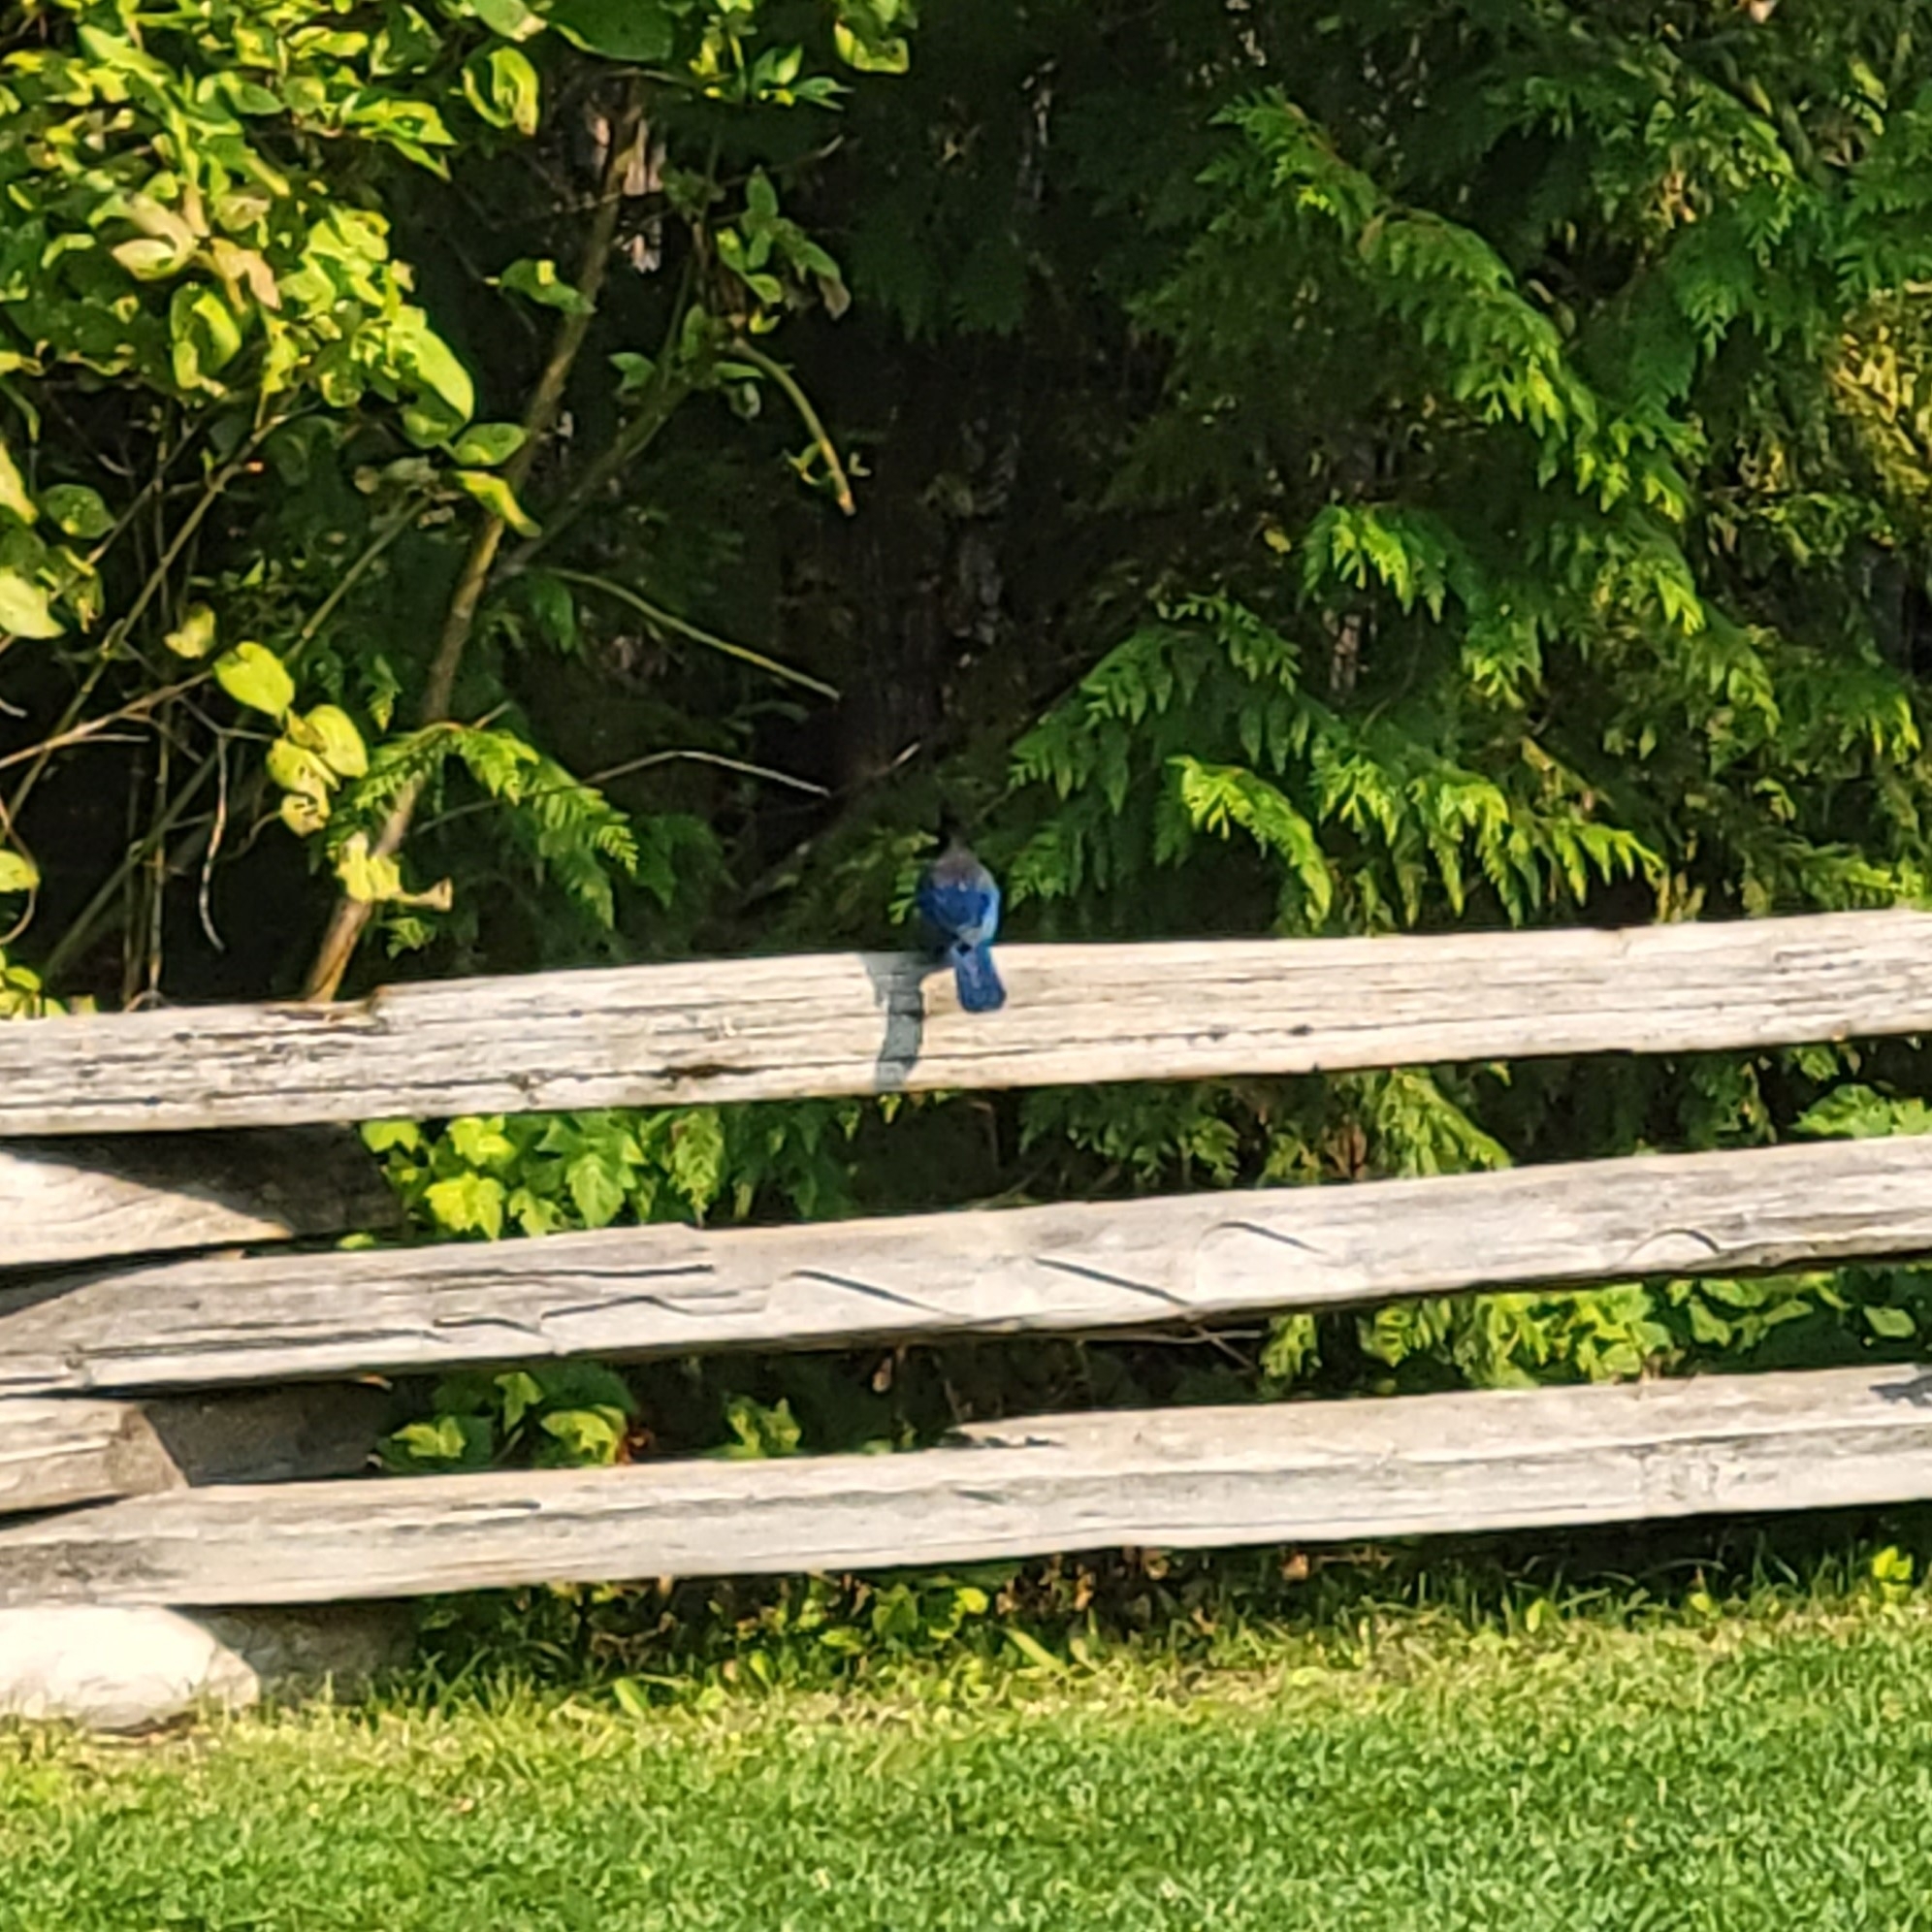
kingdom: Animalia
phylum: Chordata
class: Aves
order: Passeriformes
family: Corvidae
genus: Cyanocitta
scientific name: Cyanocitta stelleri
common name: Steller's jay
